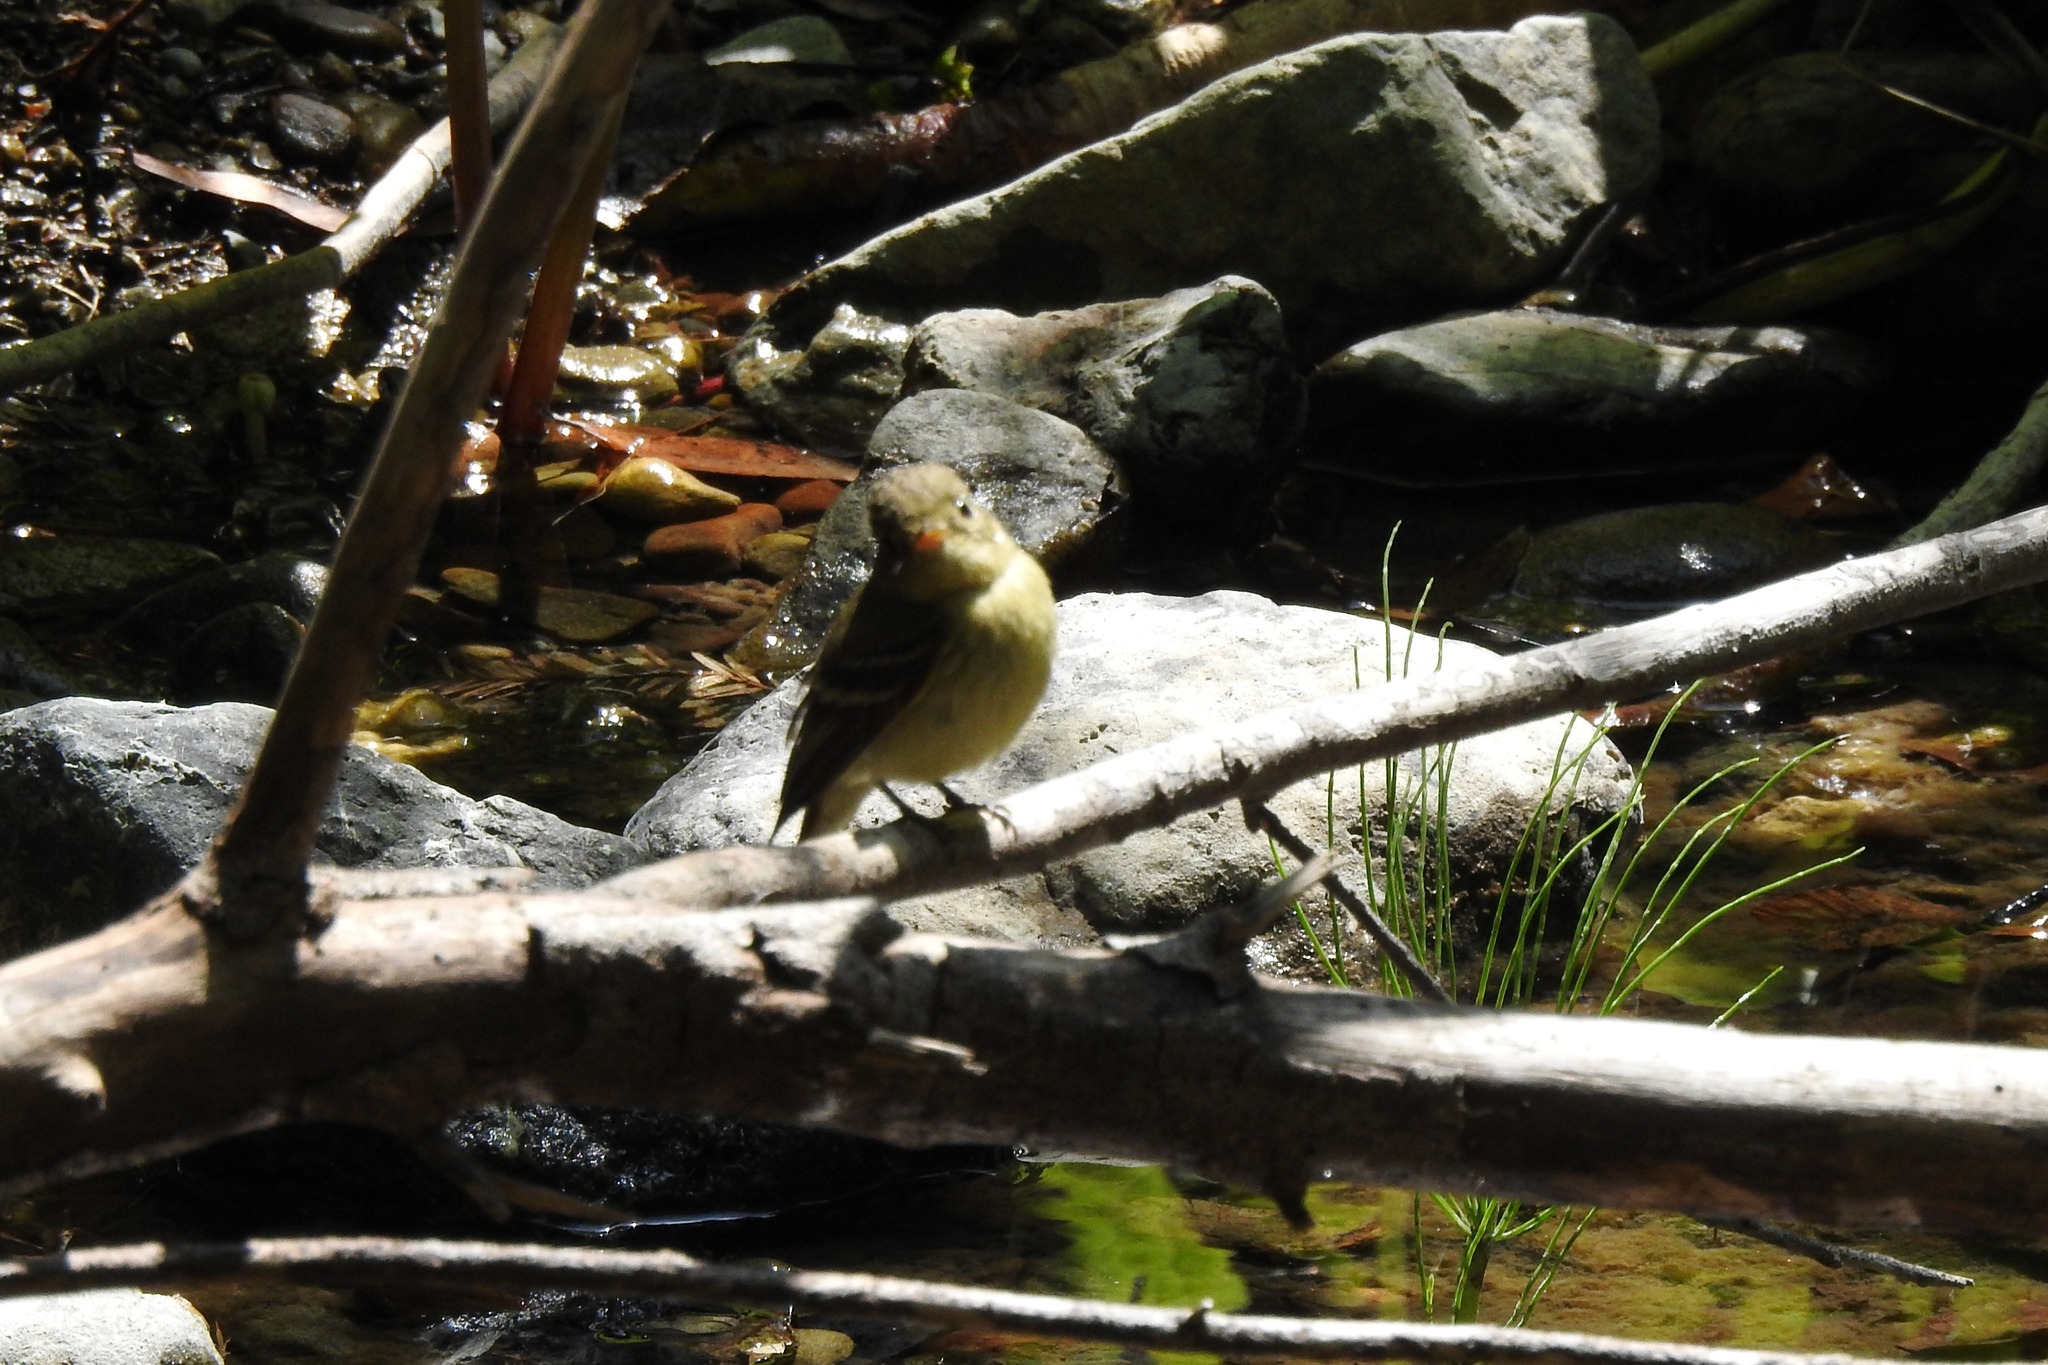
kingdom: Animalia
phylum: Chordata
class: Aves
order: Passeriformes
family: Tyrannidae
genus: Empidonax
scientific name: Empidonax difficilis
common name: Pacific-slope flycatcher
